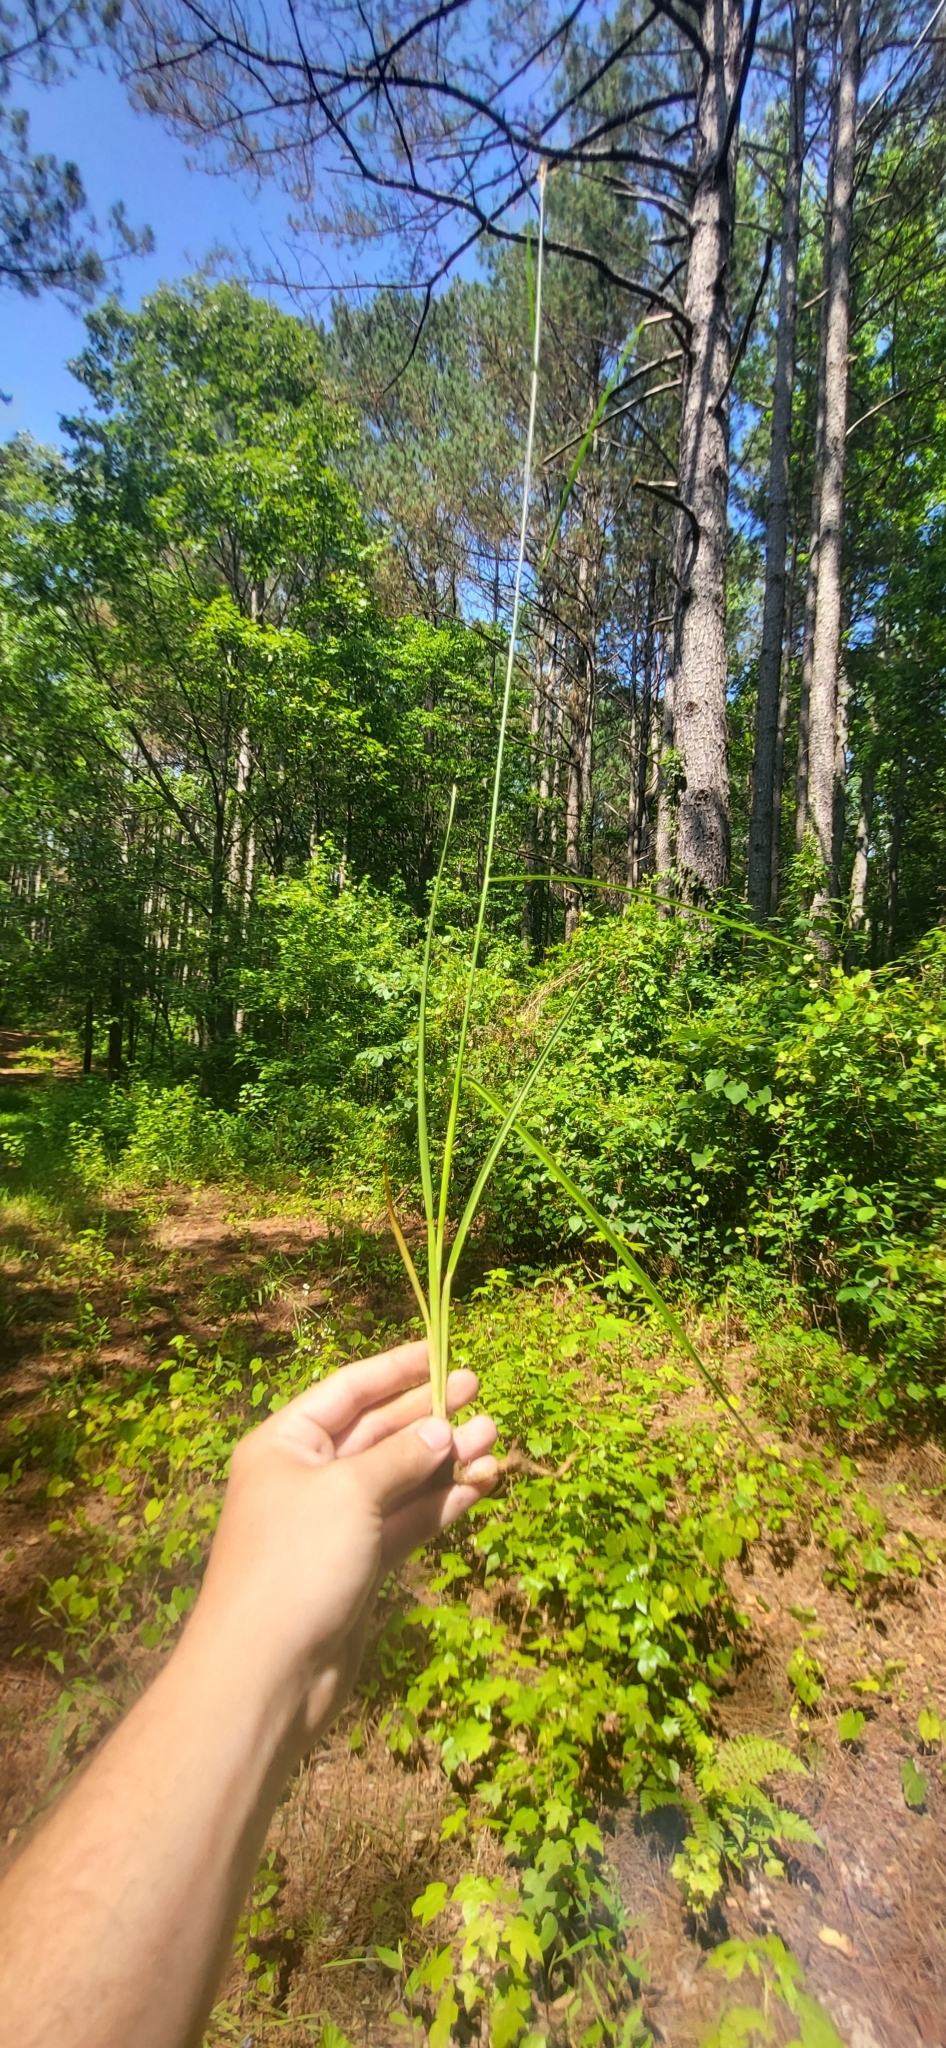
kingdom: Plantae
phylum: Tracheophyta
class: Liliopsida
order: Poales
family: Juncaceae
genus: Juncus
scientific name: Juncus marginatus
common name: Grass-leaf rush
